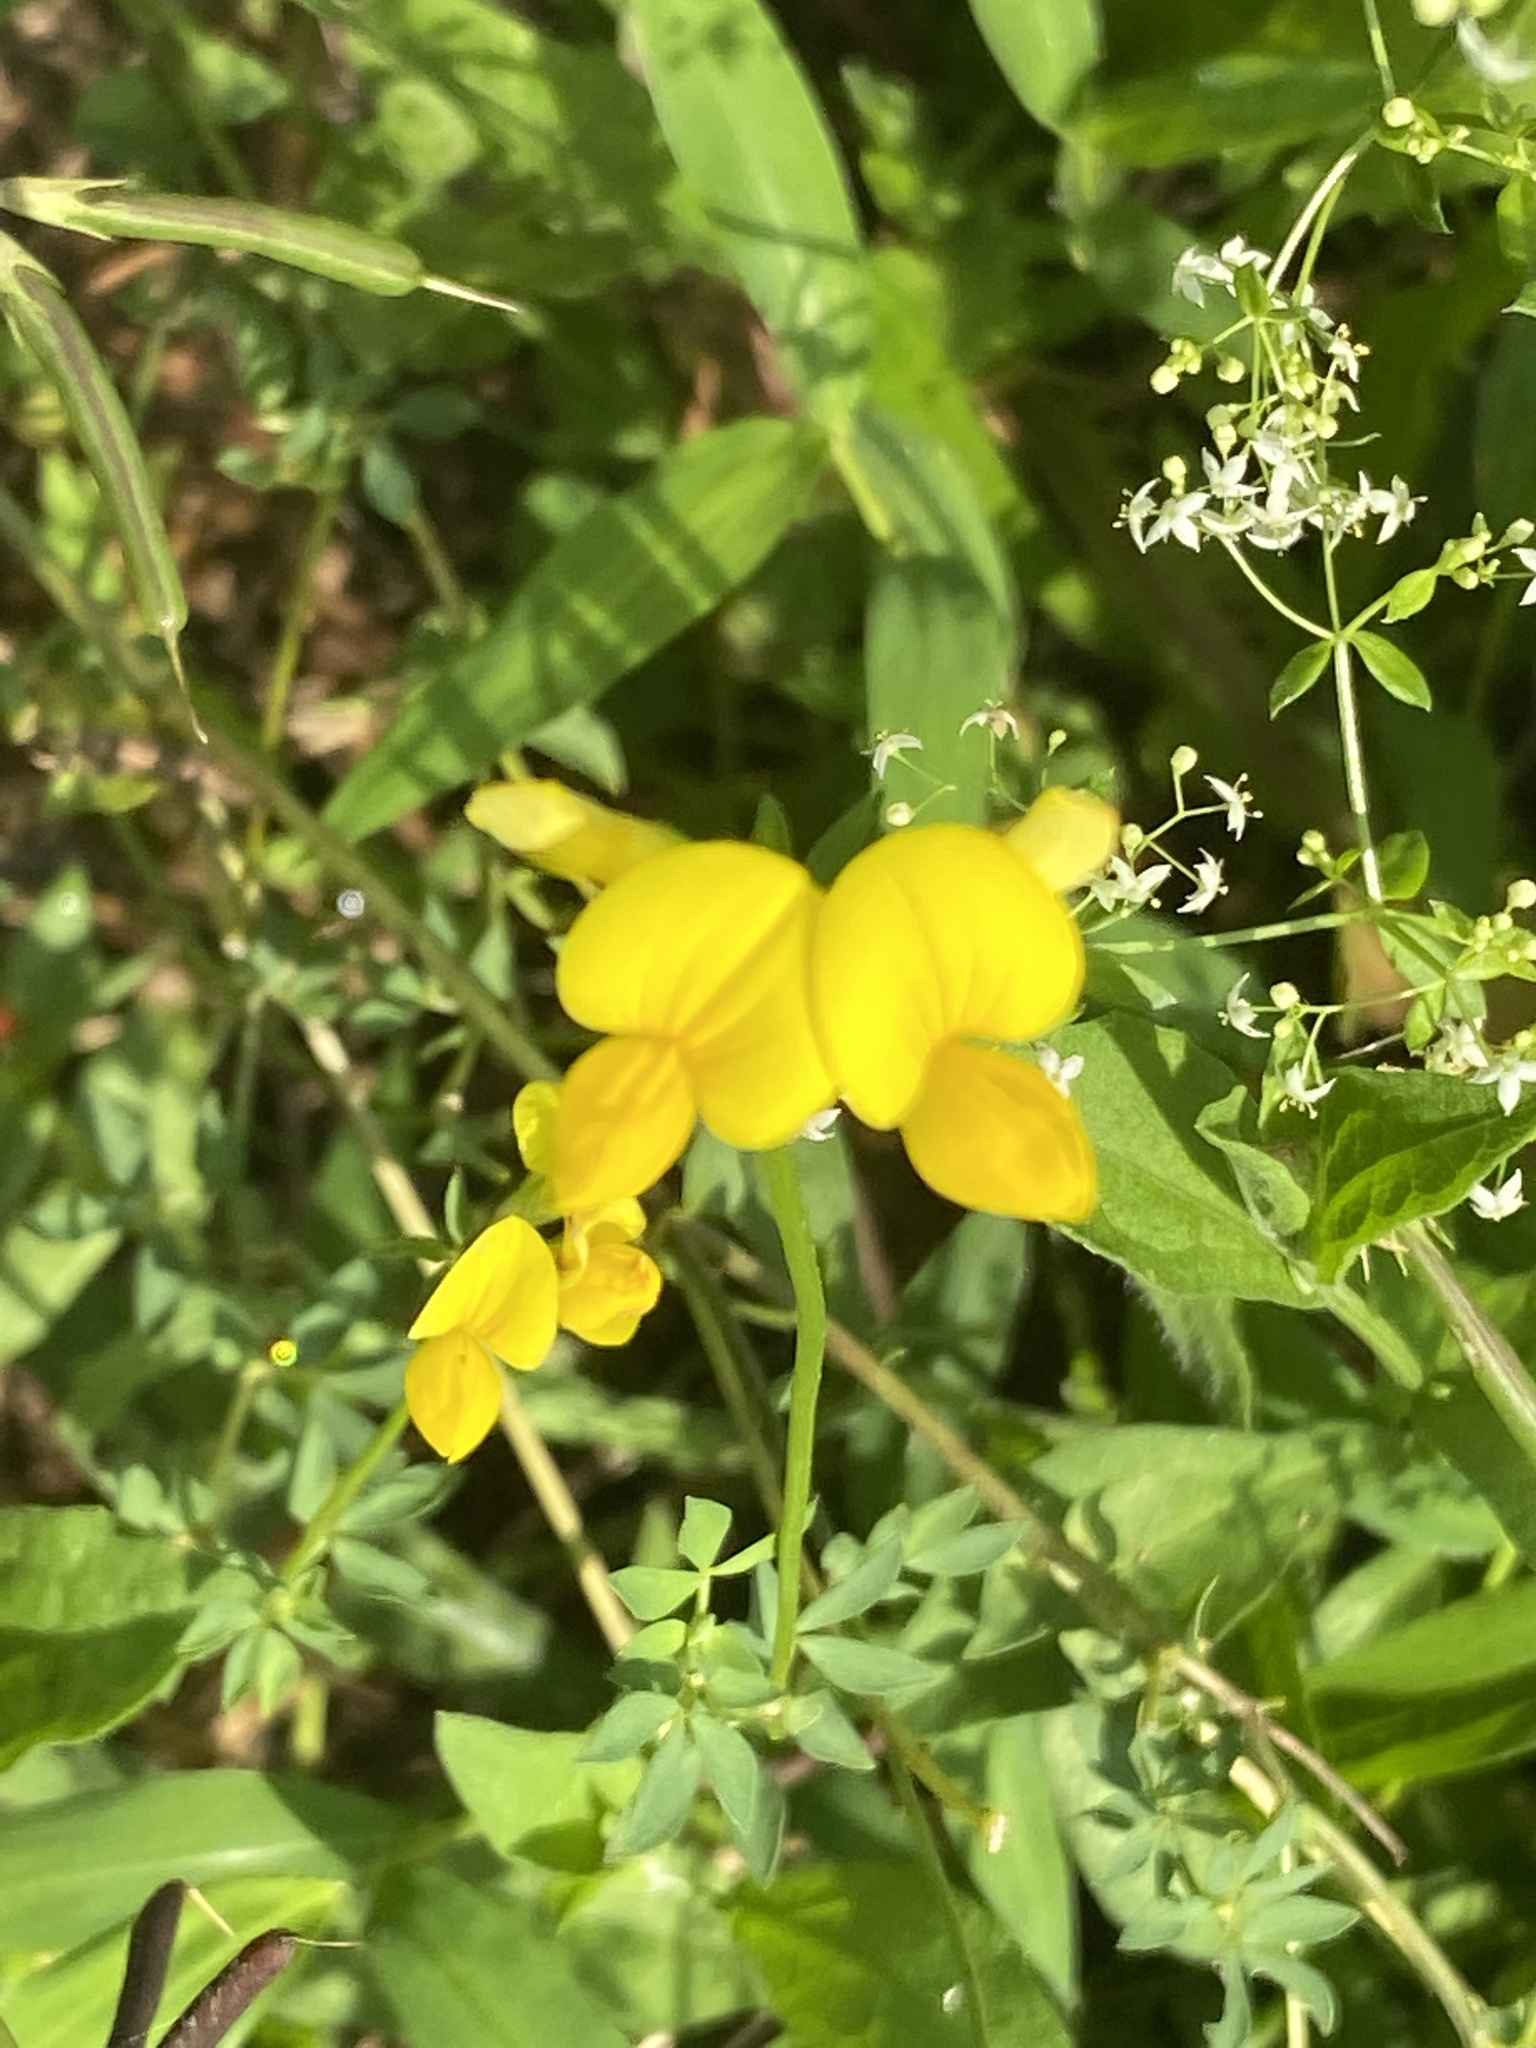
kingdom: Plantae
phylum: Tracheophyta
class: Magnoliopsida
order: Fabales
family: Fabaceae
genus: Lotus
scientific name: Lotus corniculatus
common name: Common bird's-foot-trefoil
